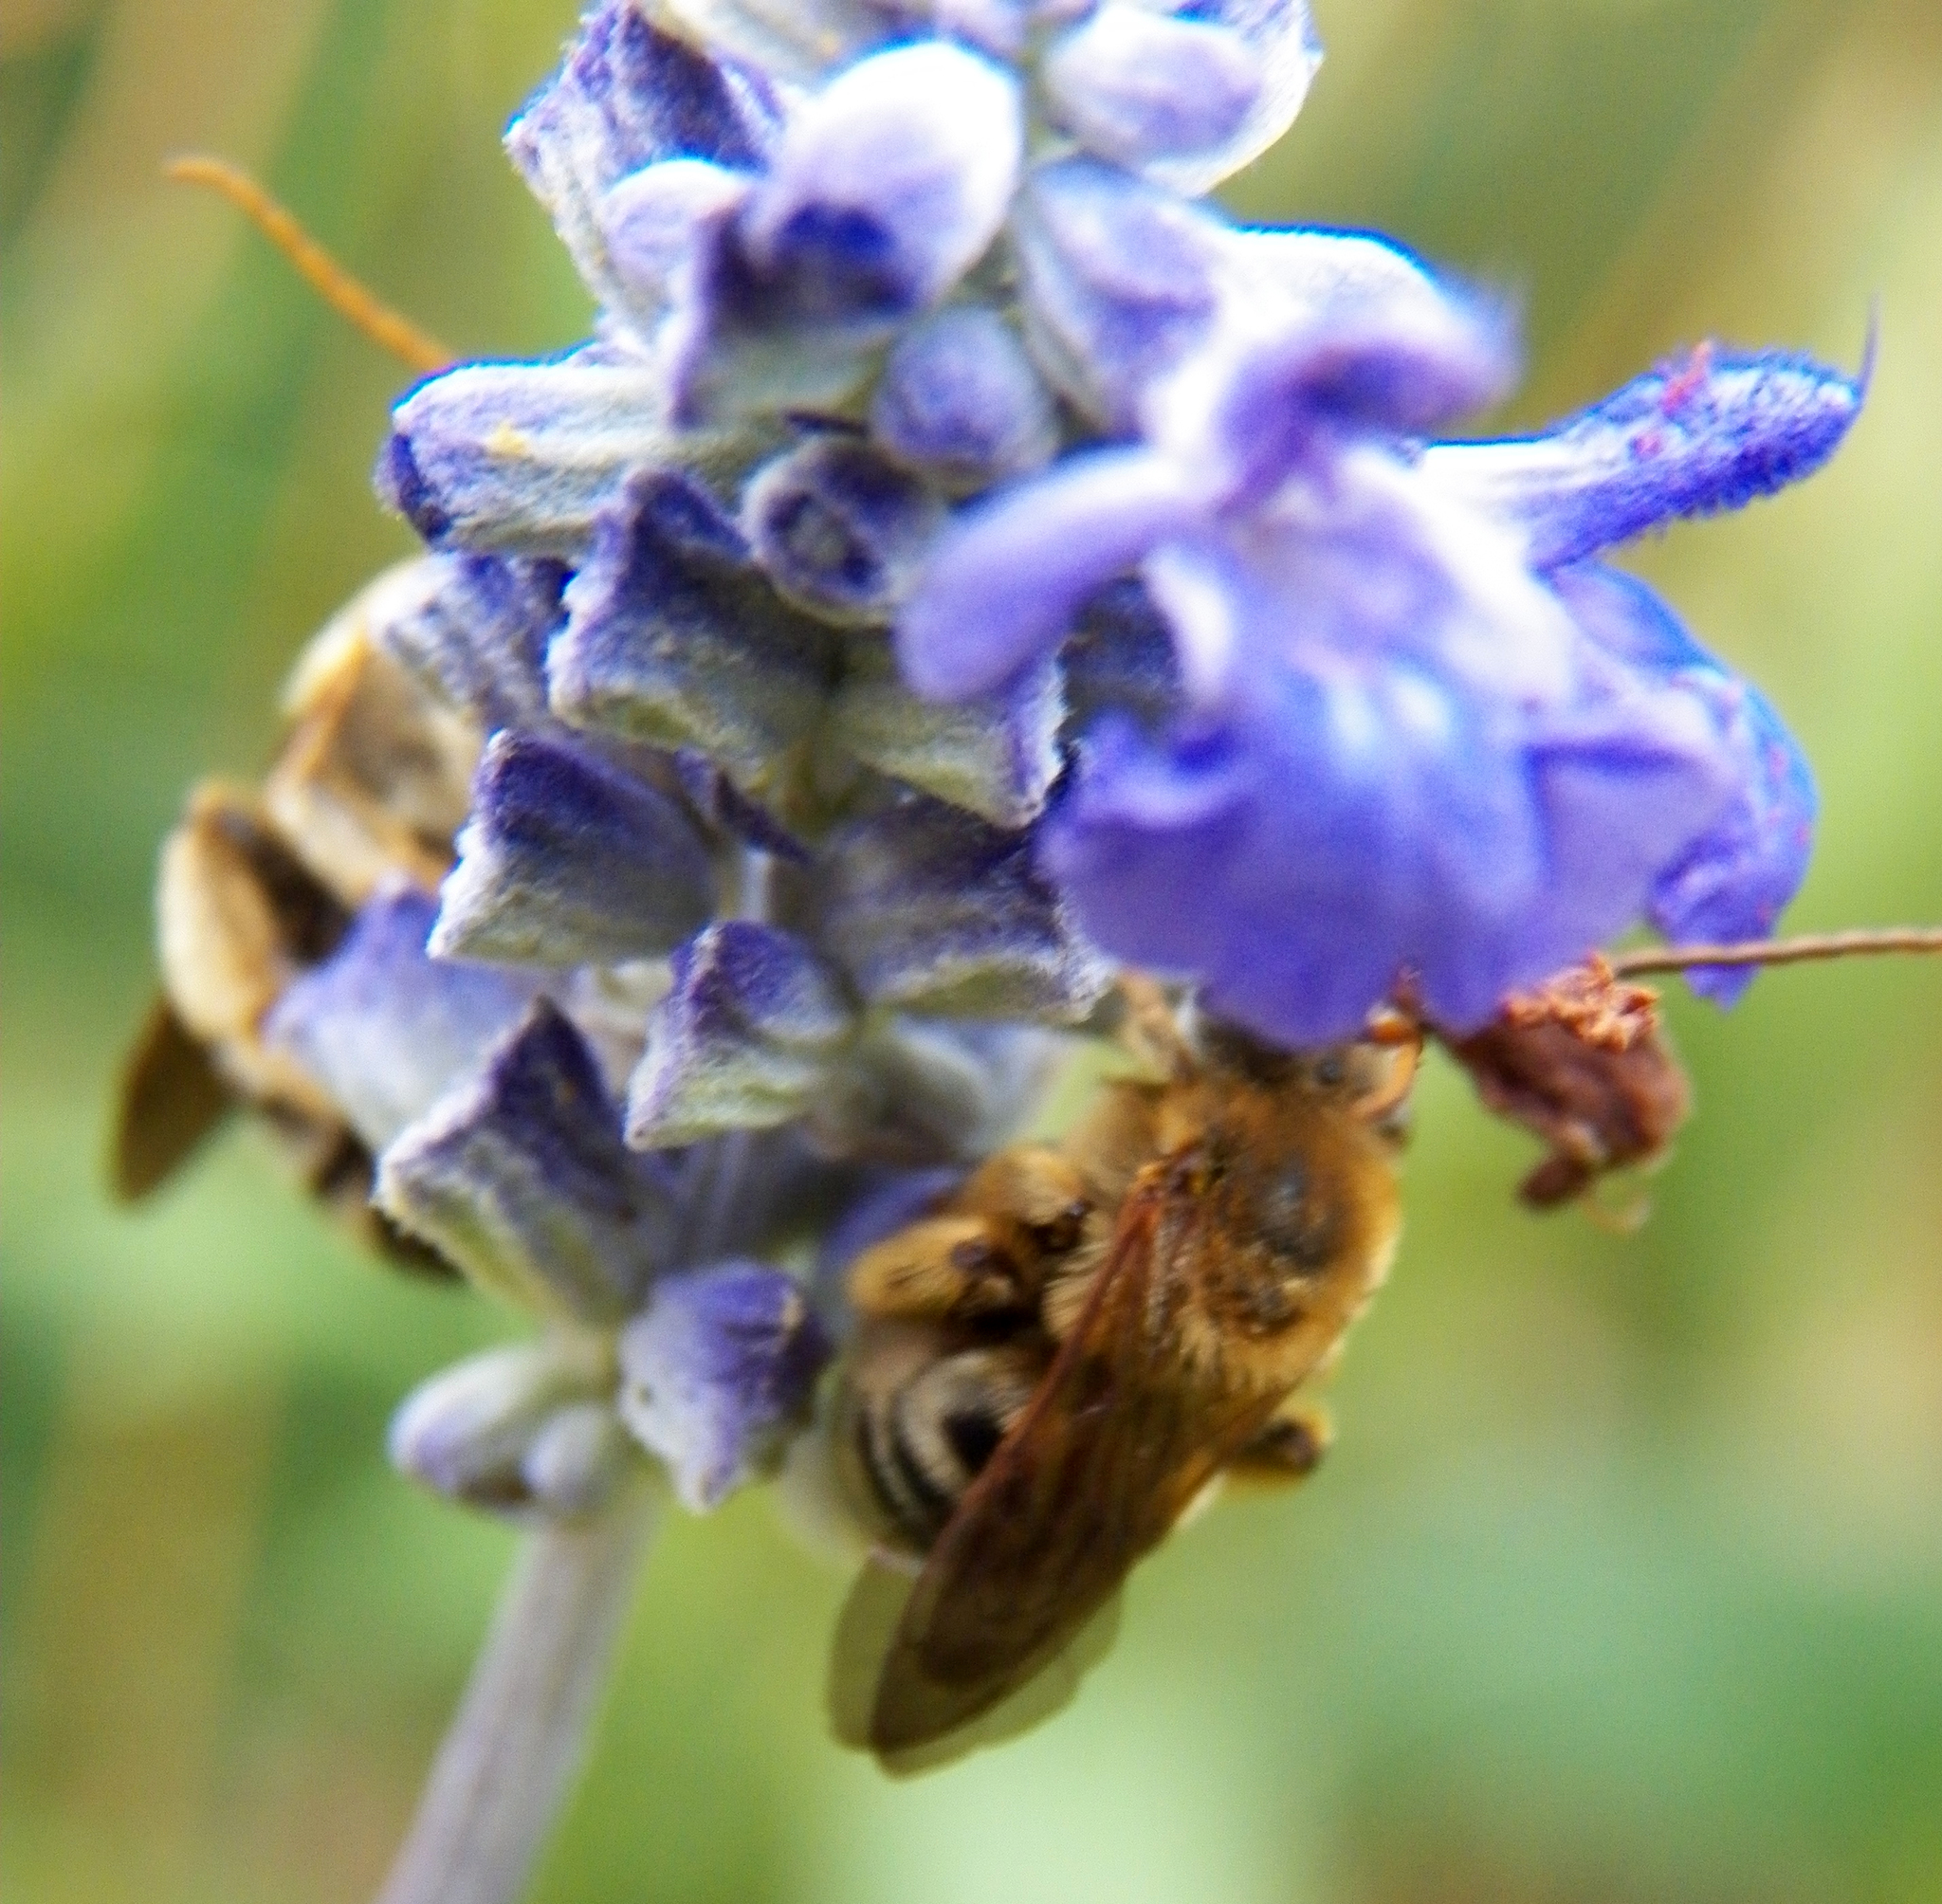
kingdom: Animalia
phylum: Arthropoda
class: Insecta
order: Hymenoptera
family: Apidae
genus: Melissodes
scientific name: Melissodes comptoides
